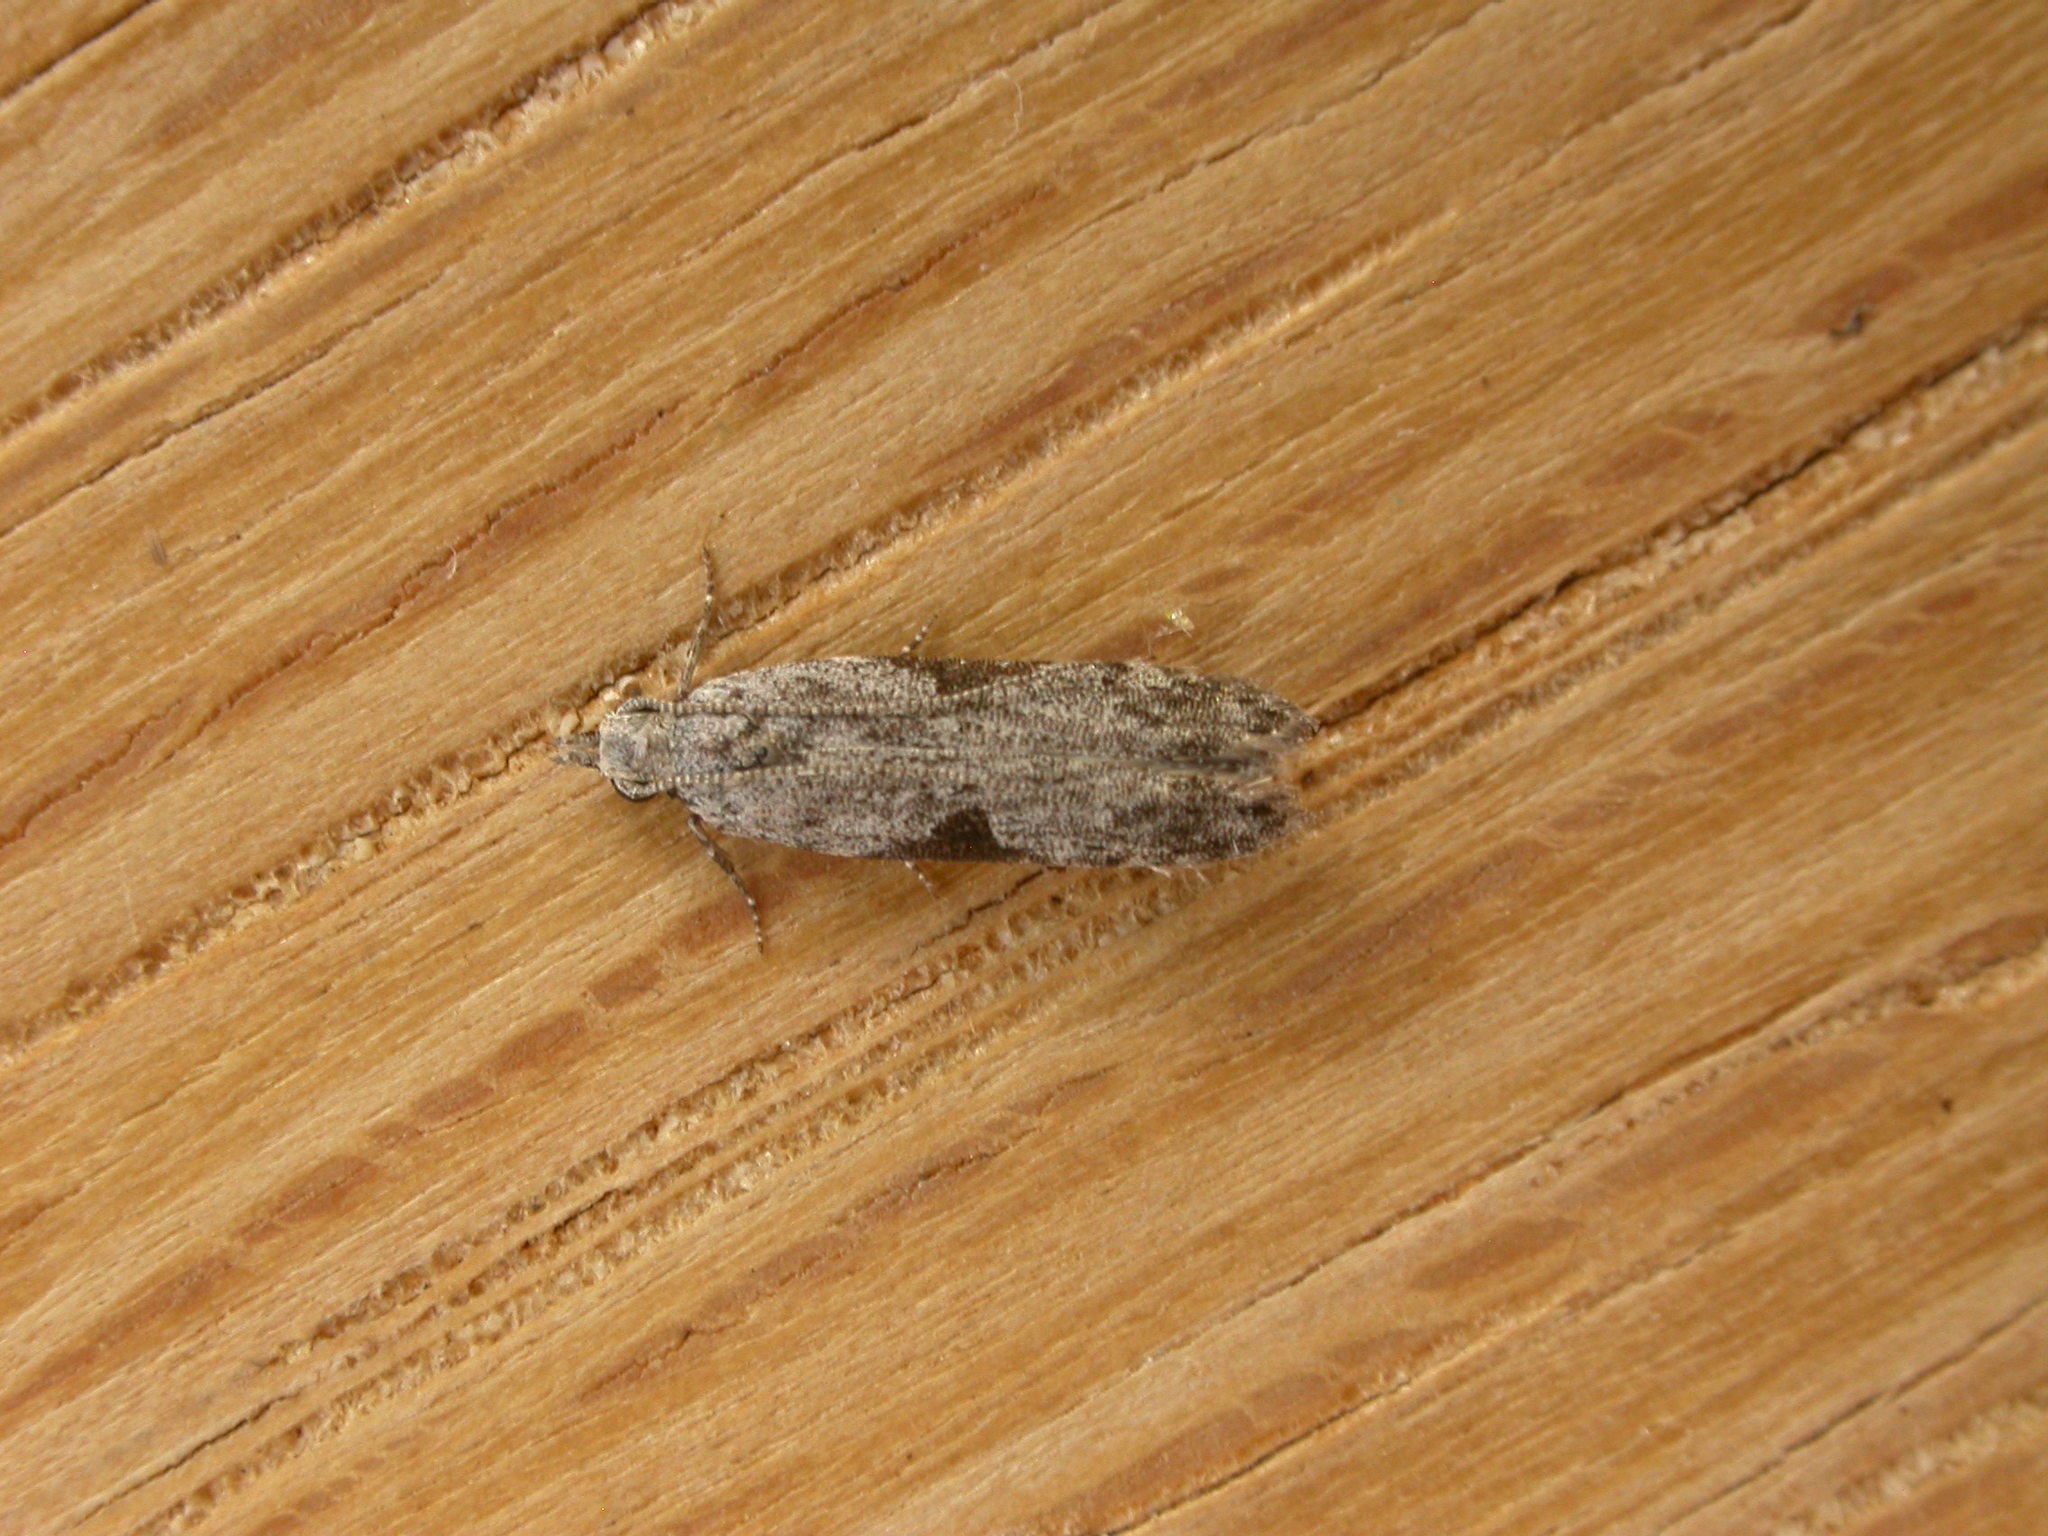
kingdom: Animalia
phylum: Arthropoda
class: Insecta
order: Lepidoptera
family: Gelechiidae
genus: Anarsia
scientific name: Anarsia molybdota
